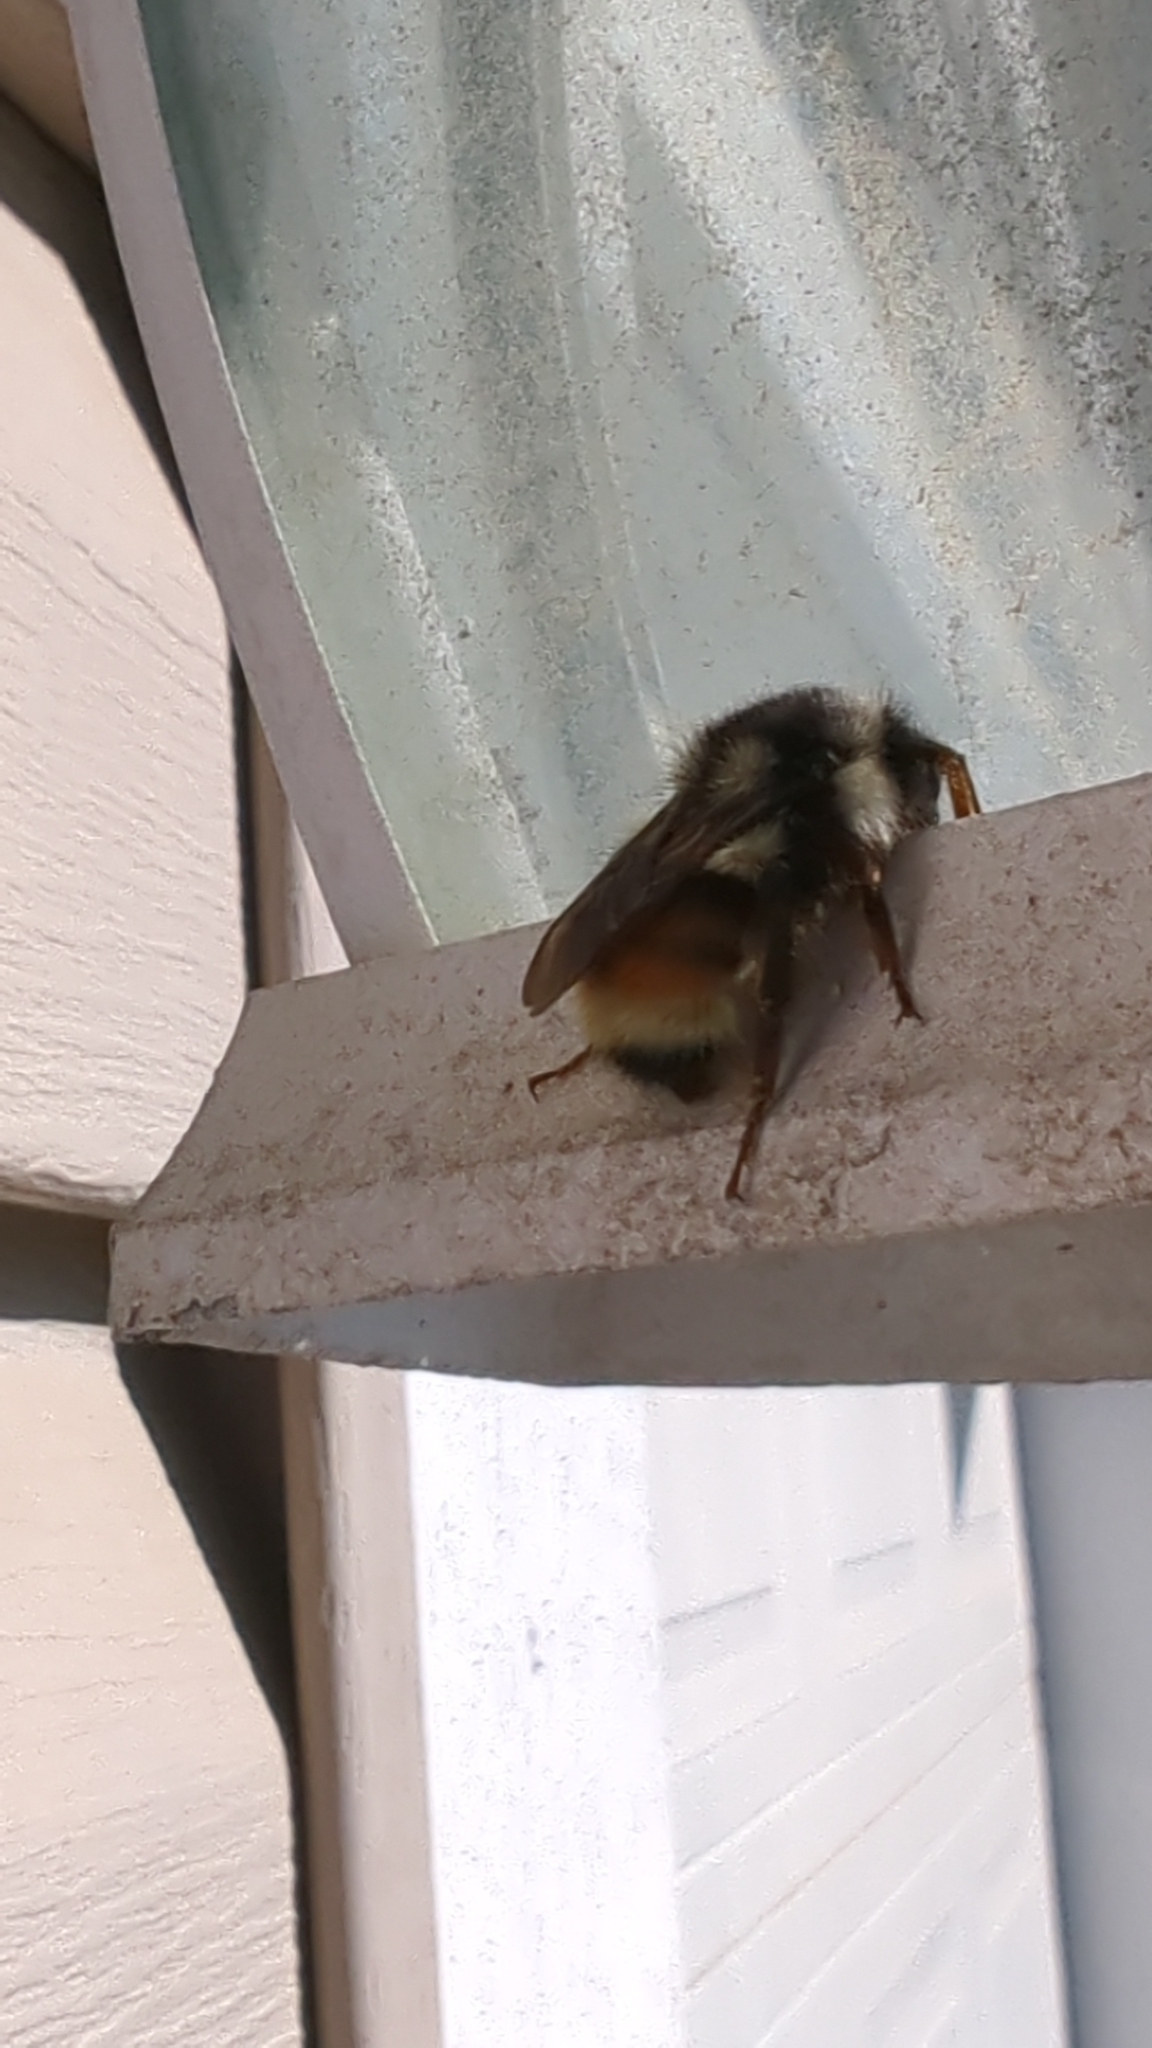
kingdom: Animalia
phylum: Arthropoda
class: Insecta
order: Hymenoptera
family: Apidae
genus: Bombus
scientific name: Bombus vancouverensis
